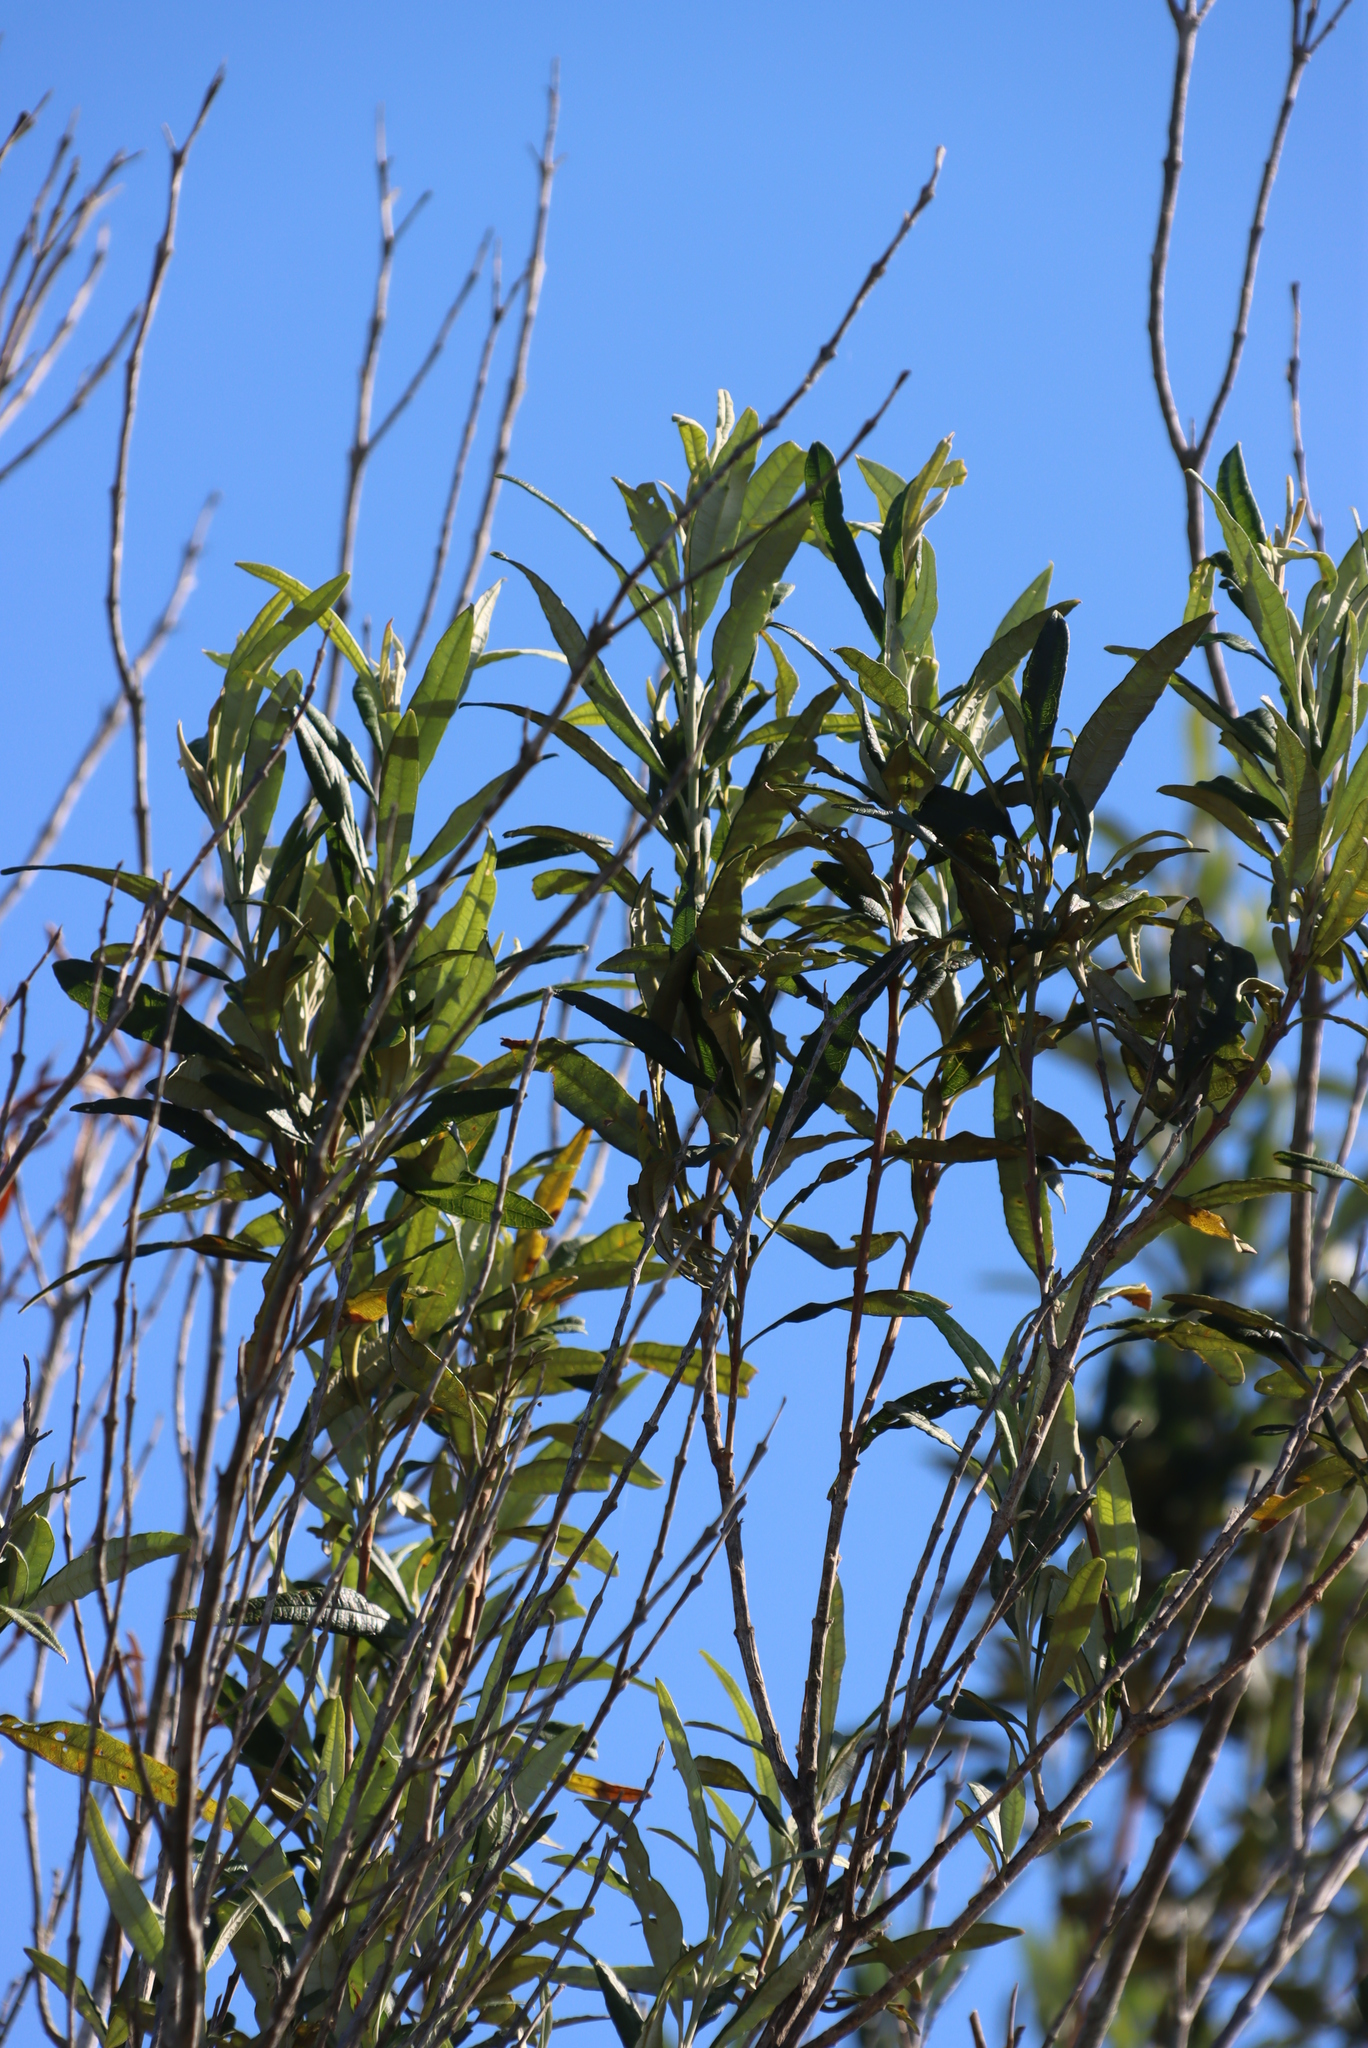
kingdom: Plantae
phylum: Tracheophyta
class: Magnoliopsida
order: Lamiales
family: Scrophulariaceae
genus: Buddleja
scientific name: Buddleja saligna
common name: False olive
